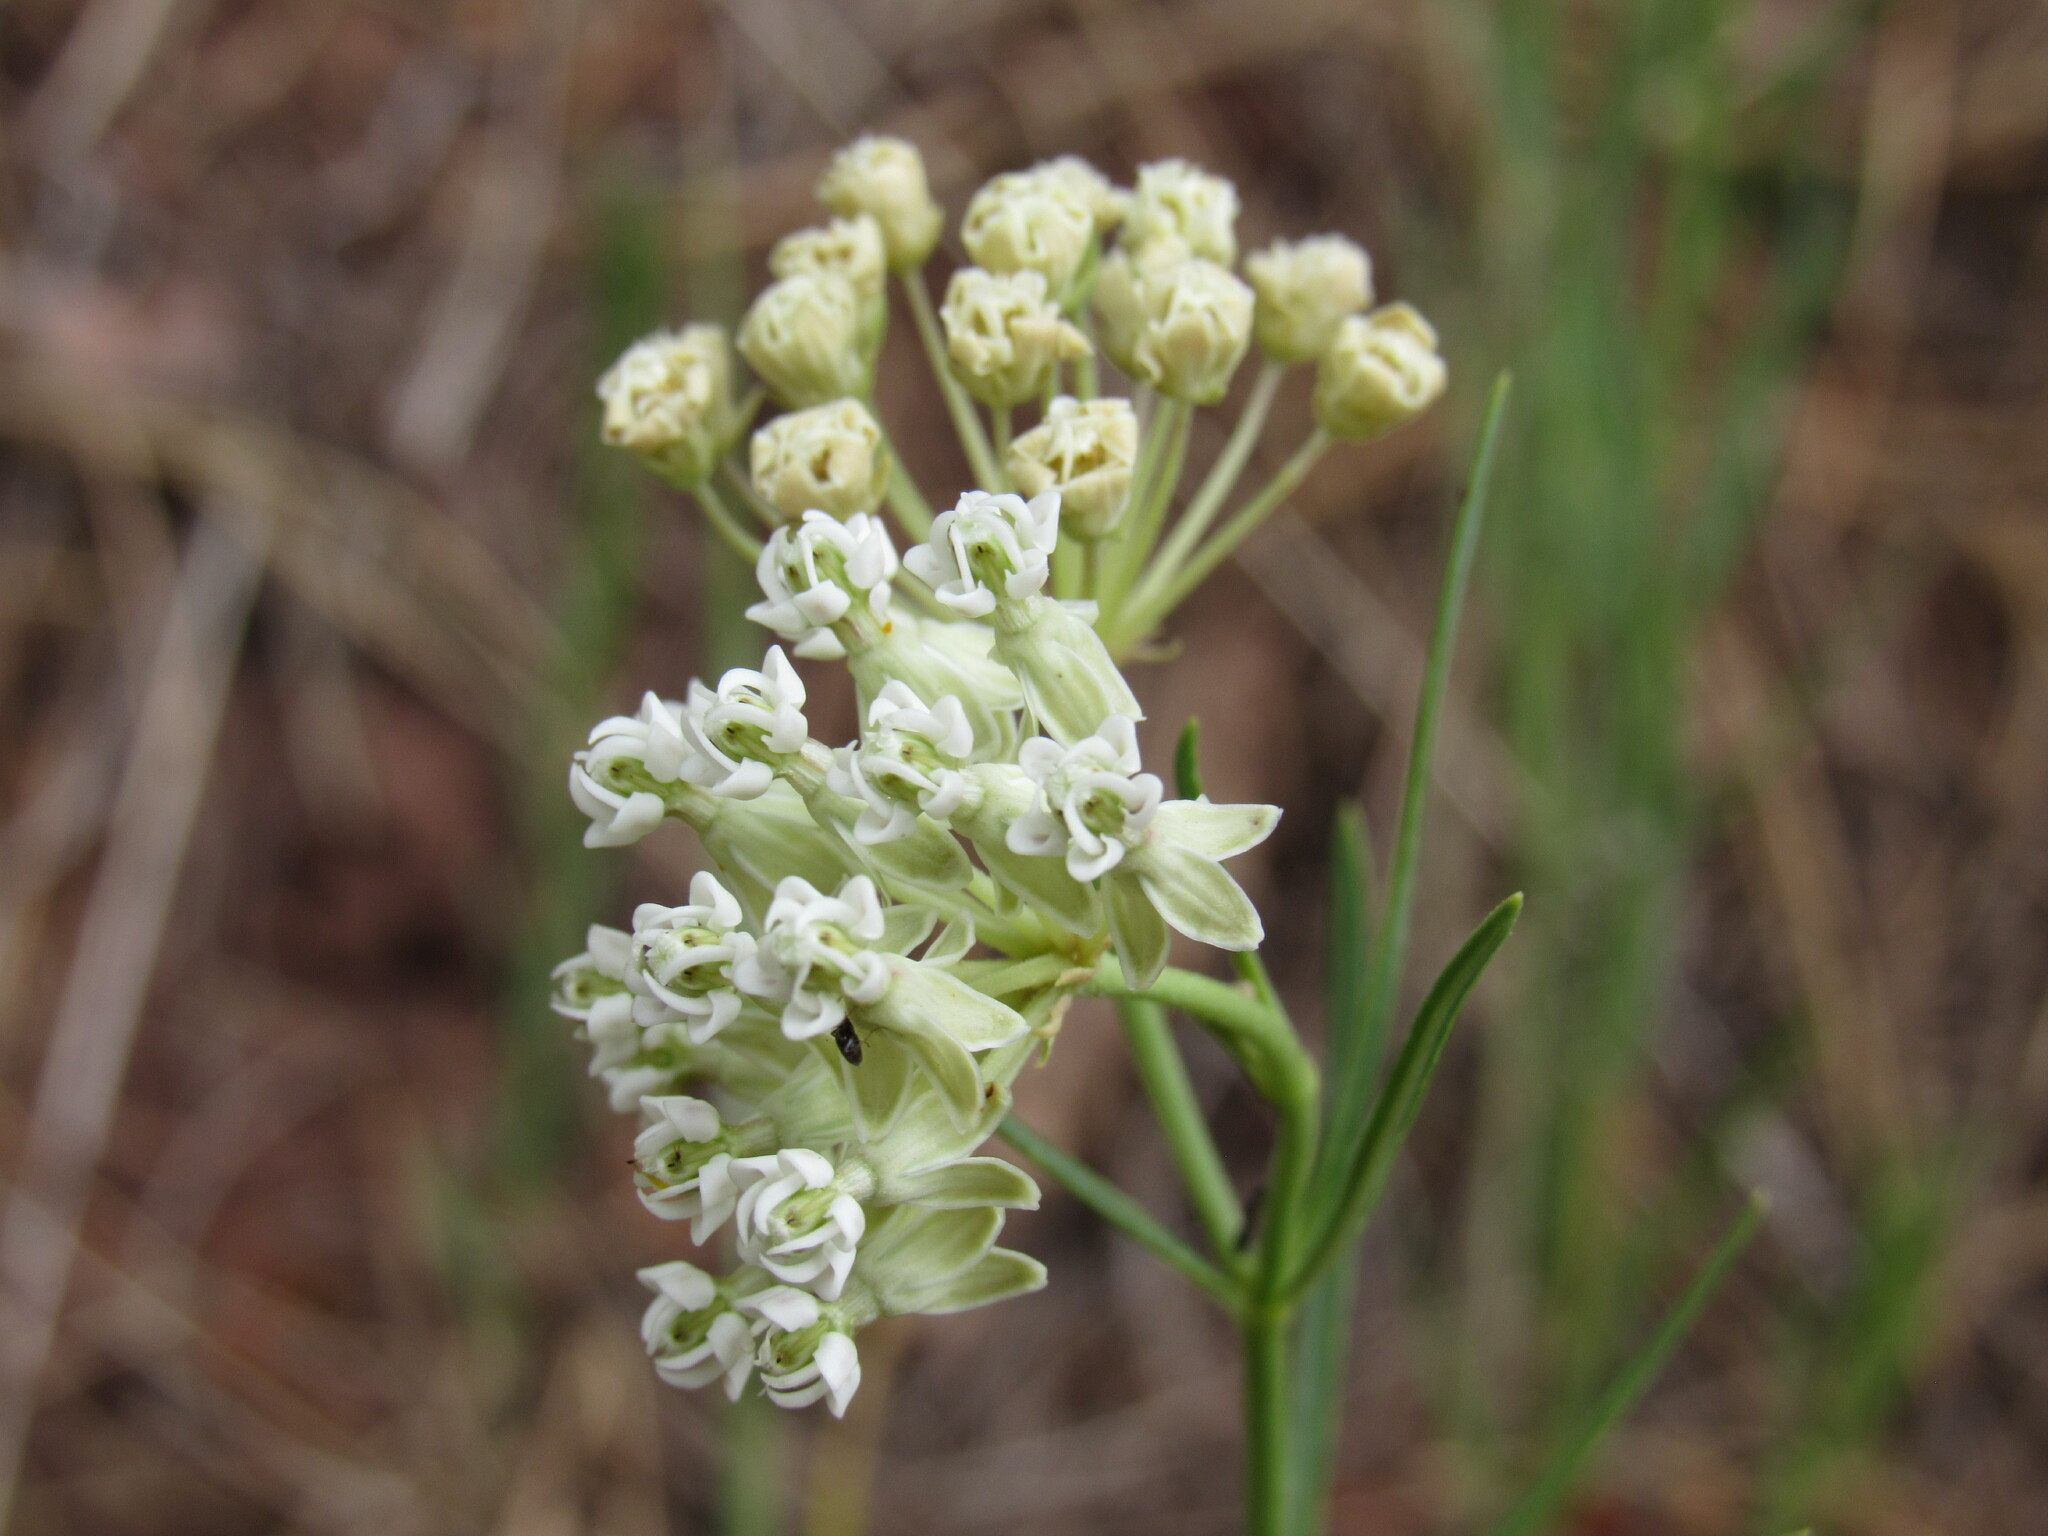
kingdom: Plantae
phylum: Tracheophyta
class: Magnoliopsida
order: Gentianales
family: Apocynaceae
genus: Asclepias
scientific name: Asclepias subverticillata
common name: Horsetail milkweed
